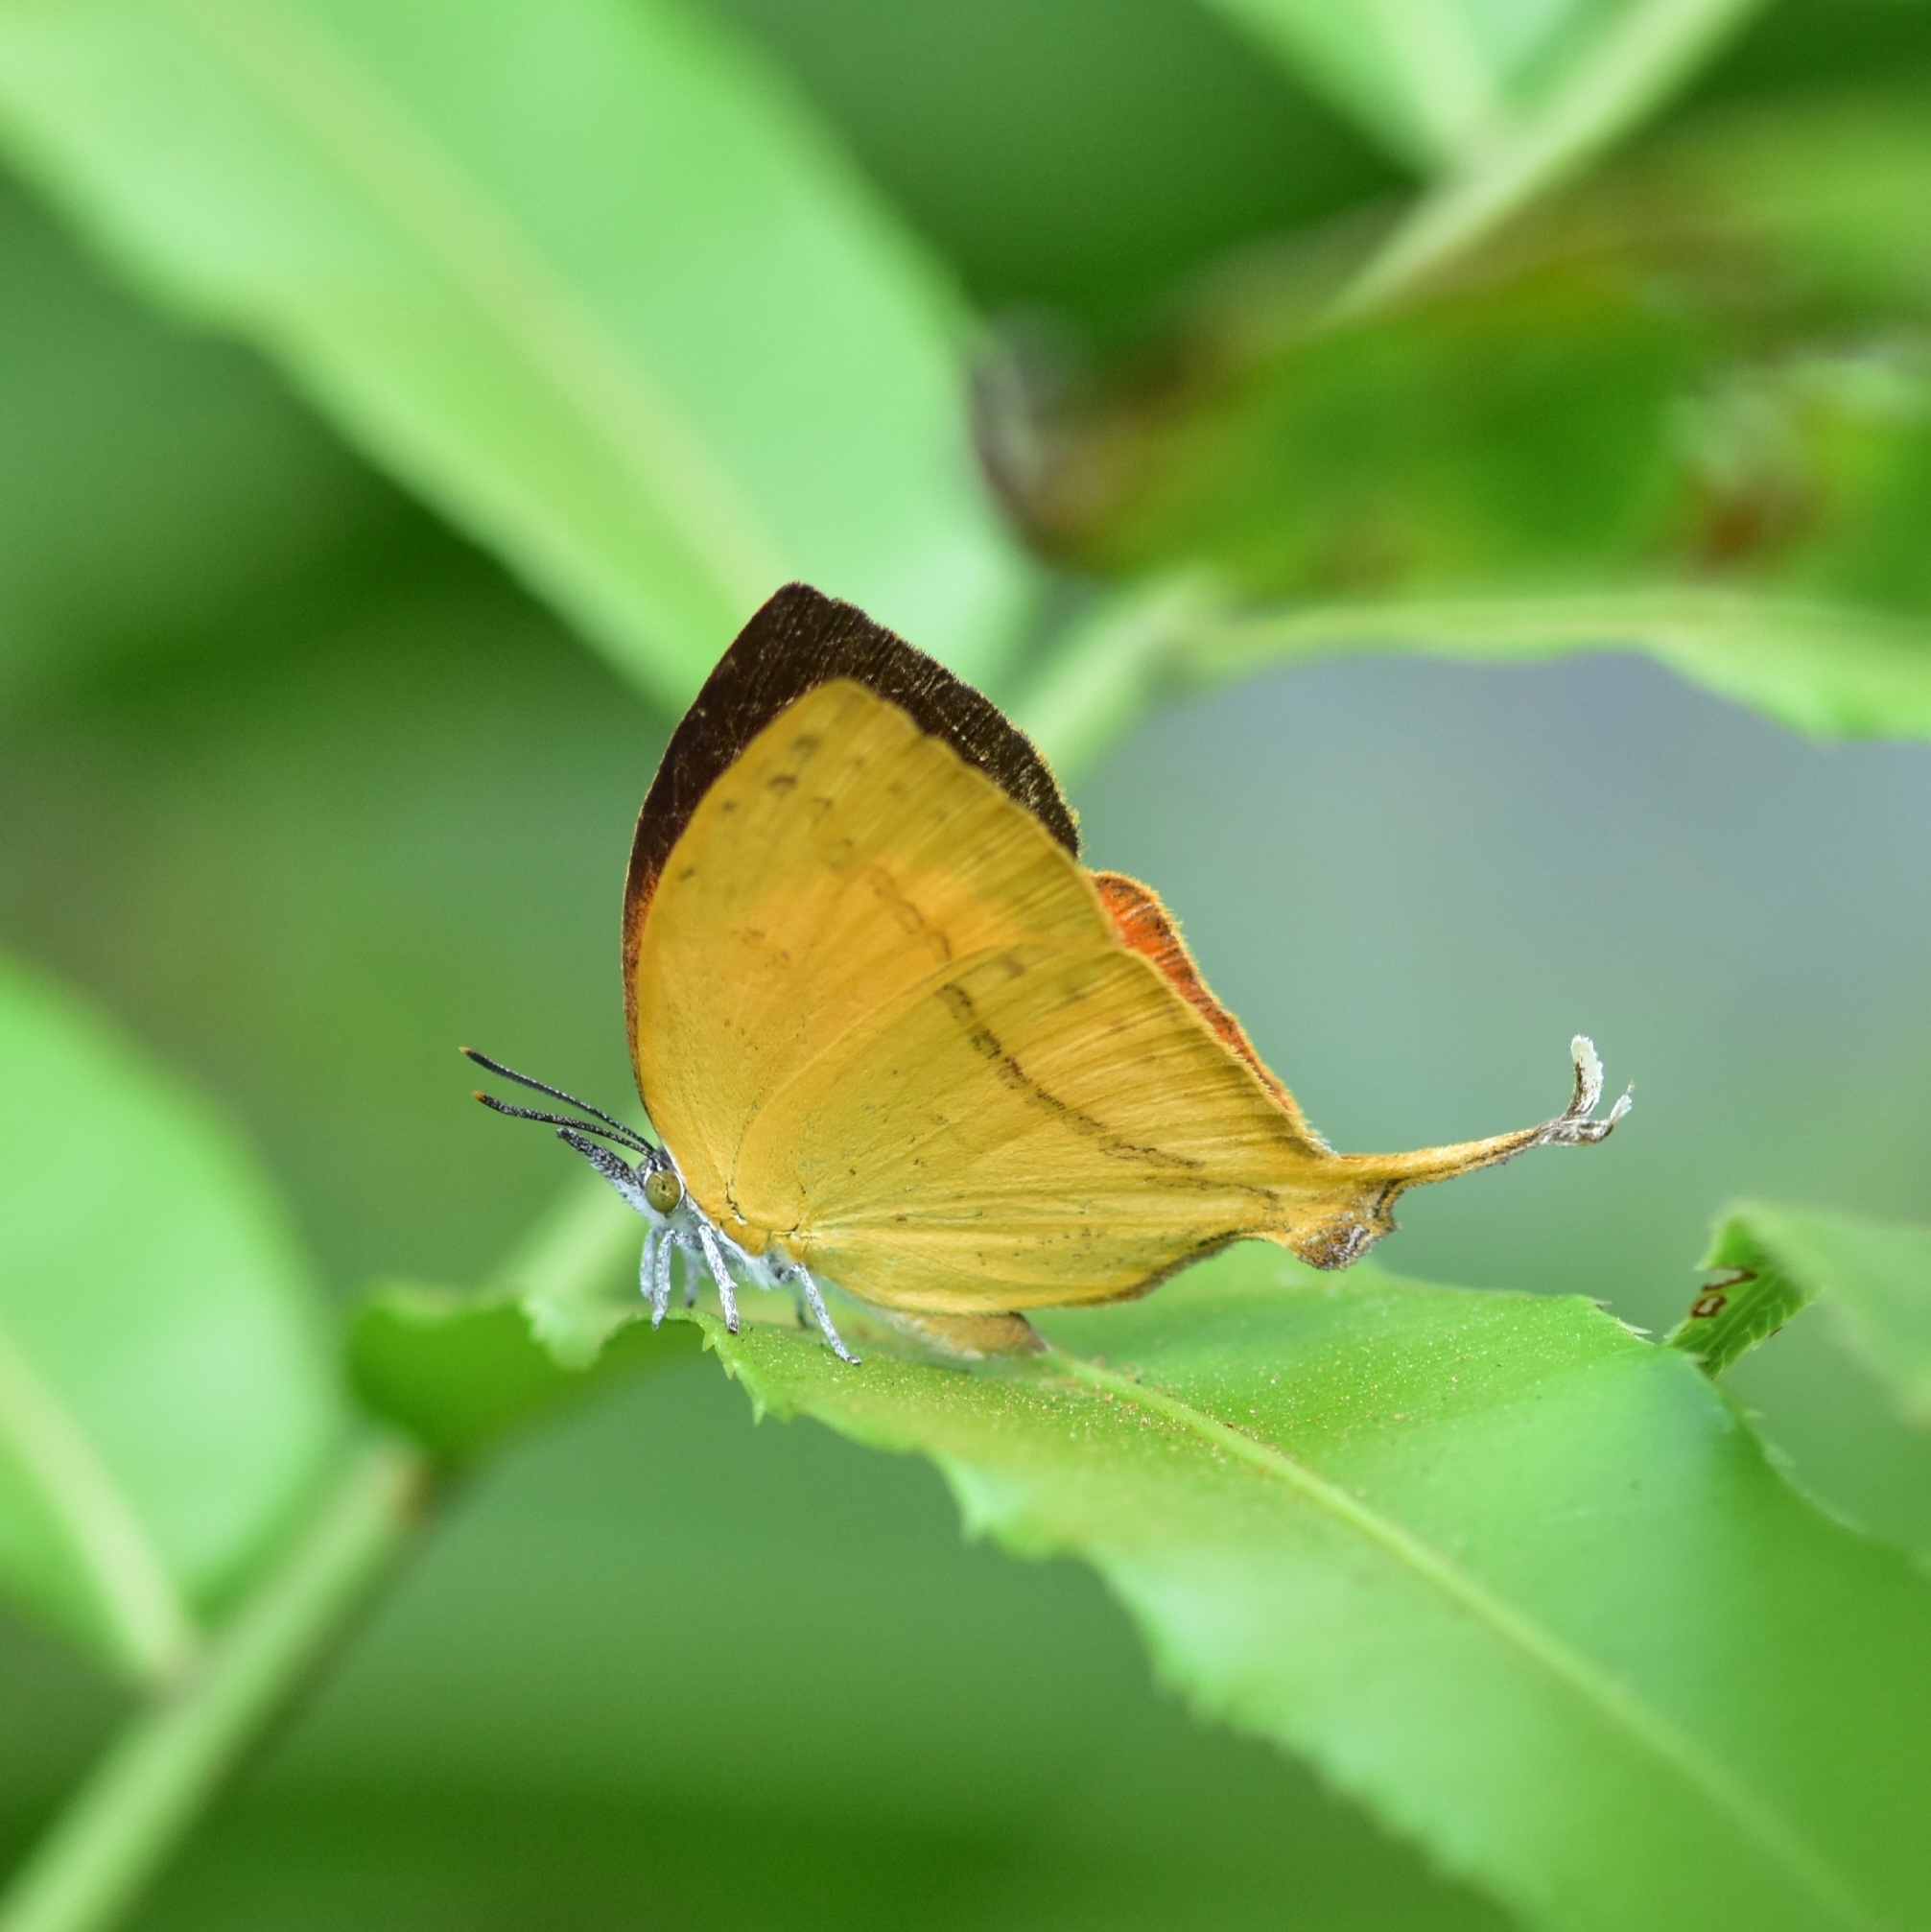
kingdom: Animalia
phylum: Arthropoda
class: Insecta
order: Lepidoptera
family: Lycaenidae
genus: Loxura
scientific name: Loxura atymnus
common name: Common yamfly
